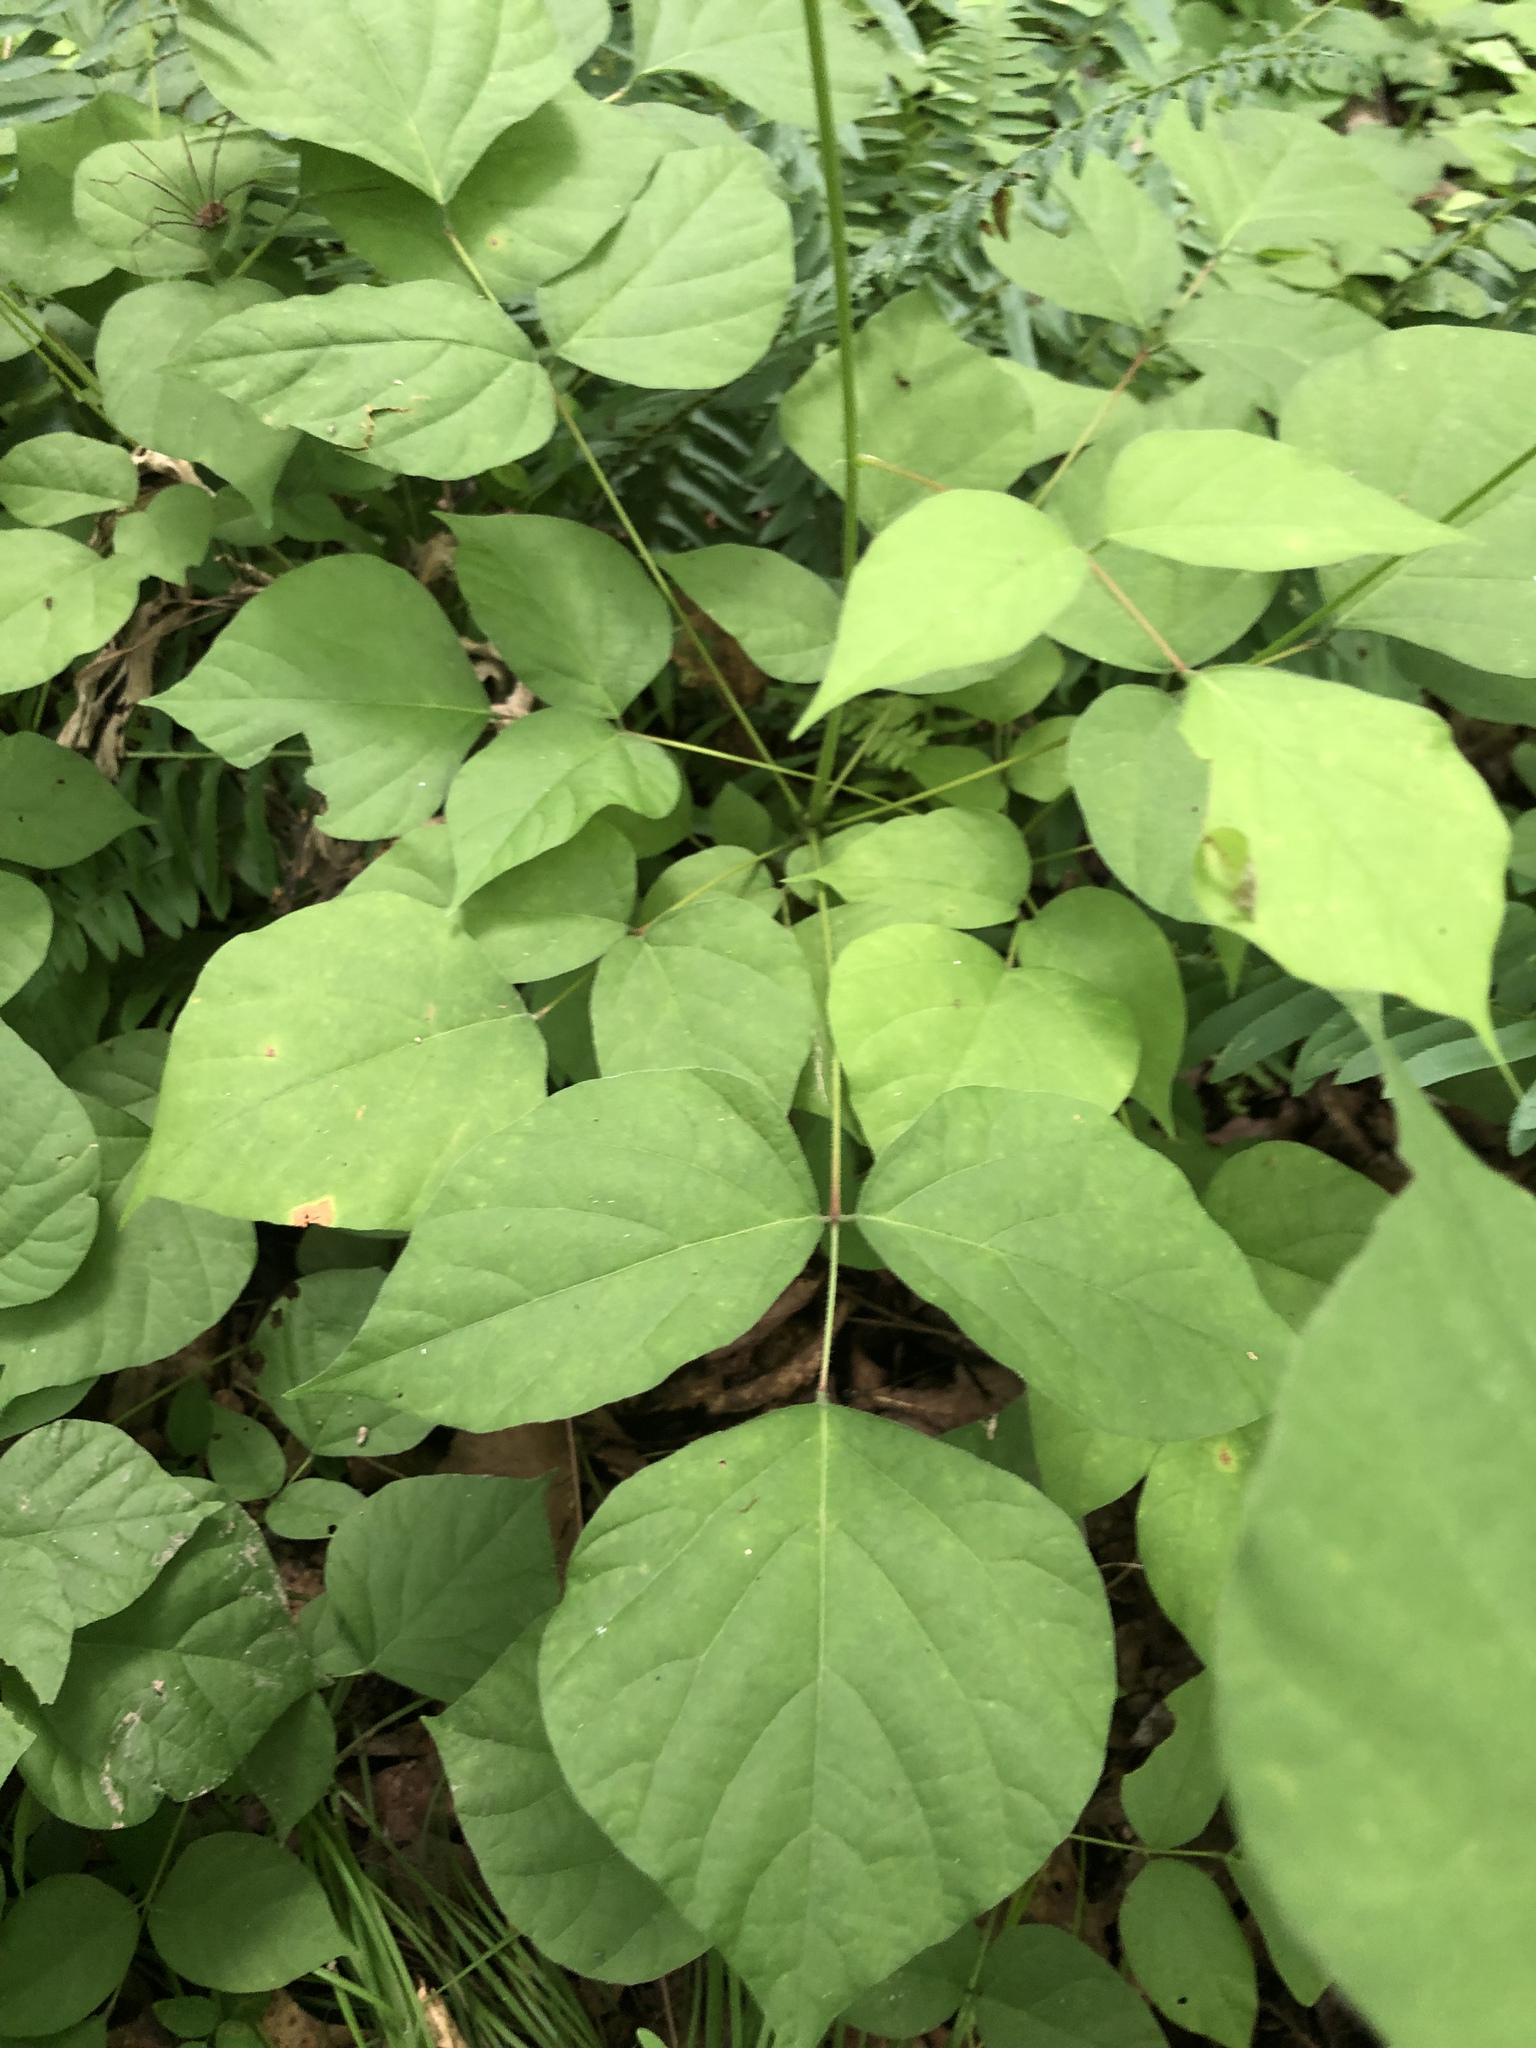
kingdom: Plantae
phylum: Tracheophyta
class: Magnoliopsida
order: Fabales
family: Fabaceae
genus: Hylodesmum
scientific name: Hylodesmum glutinosum
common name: Clustered-leaved tick-trefoil
